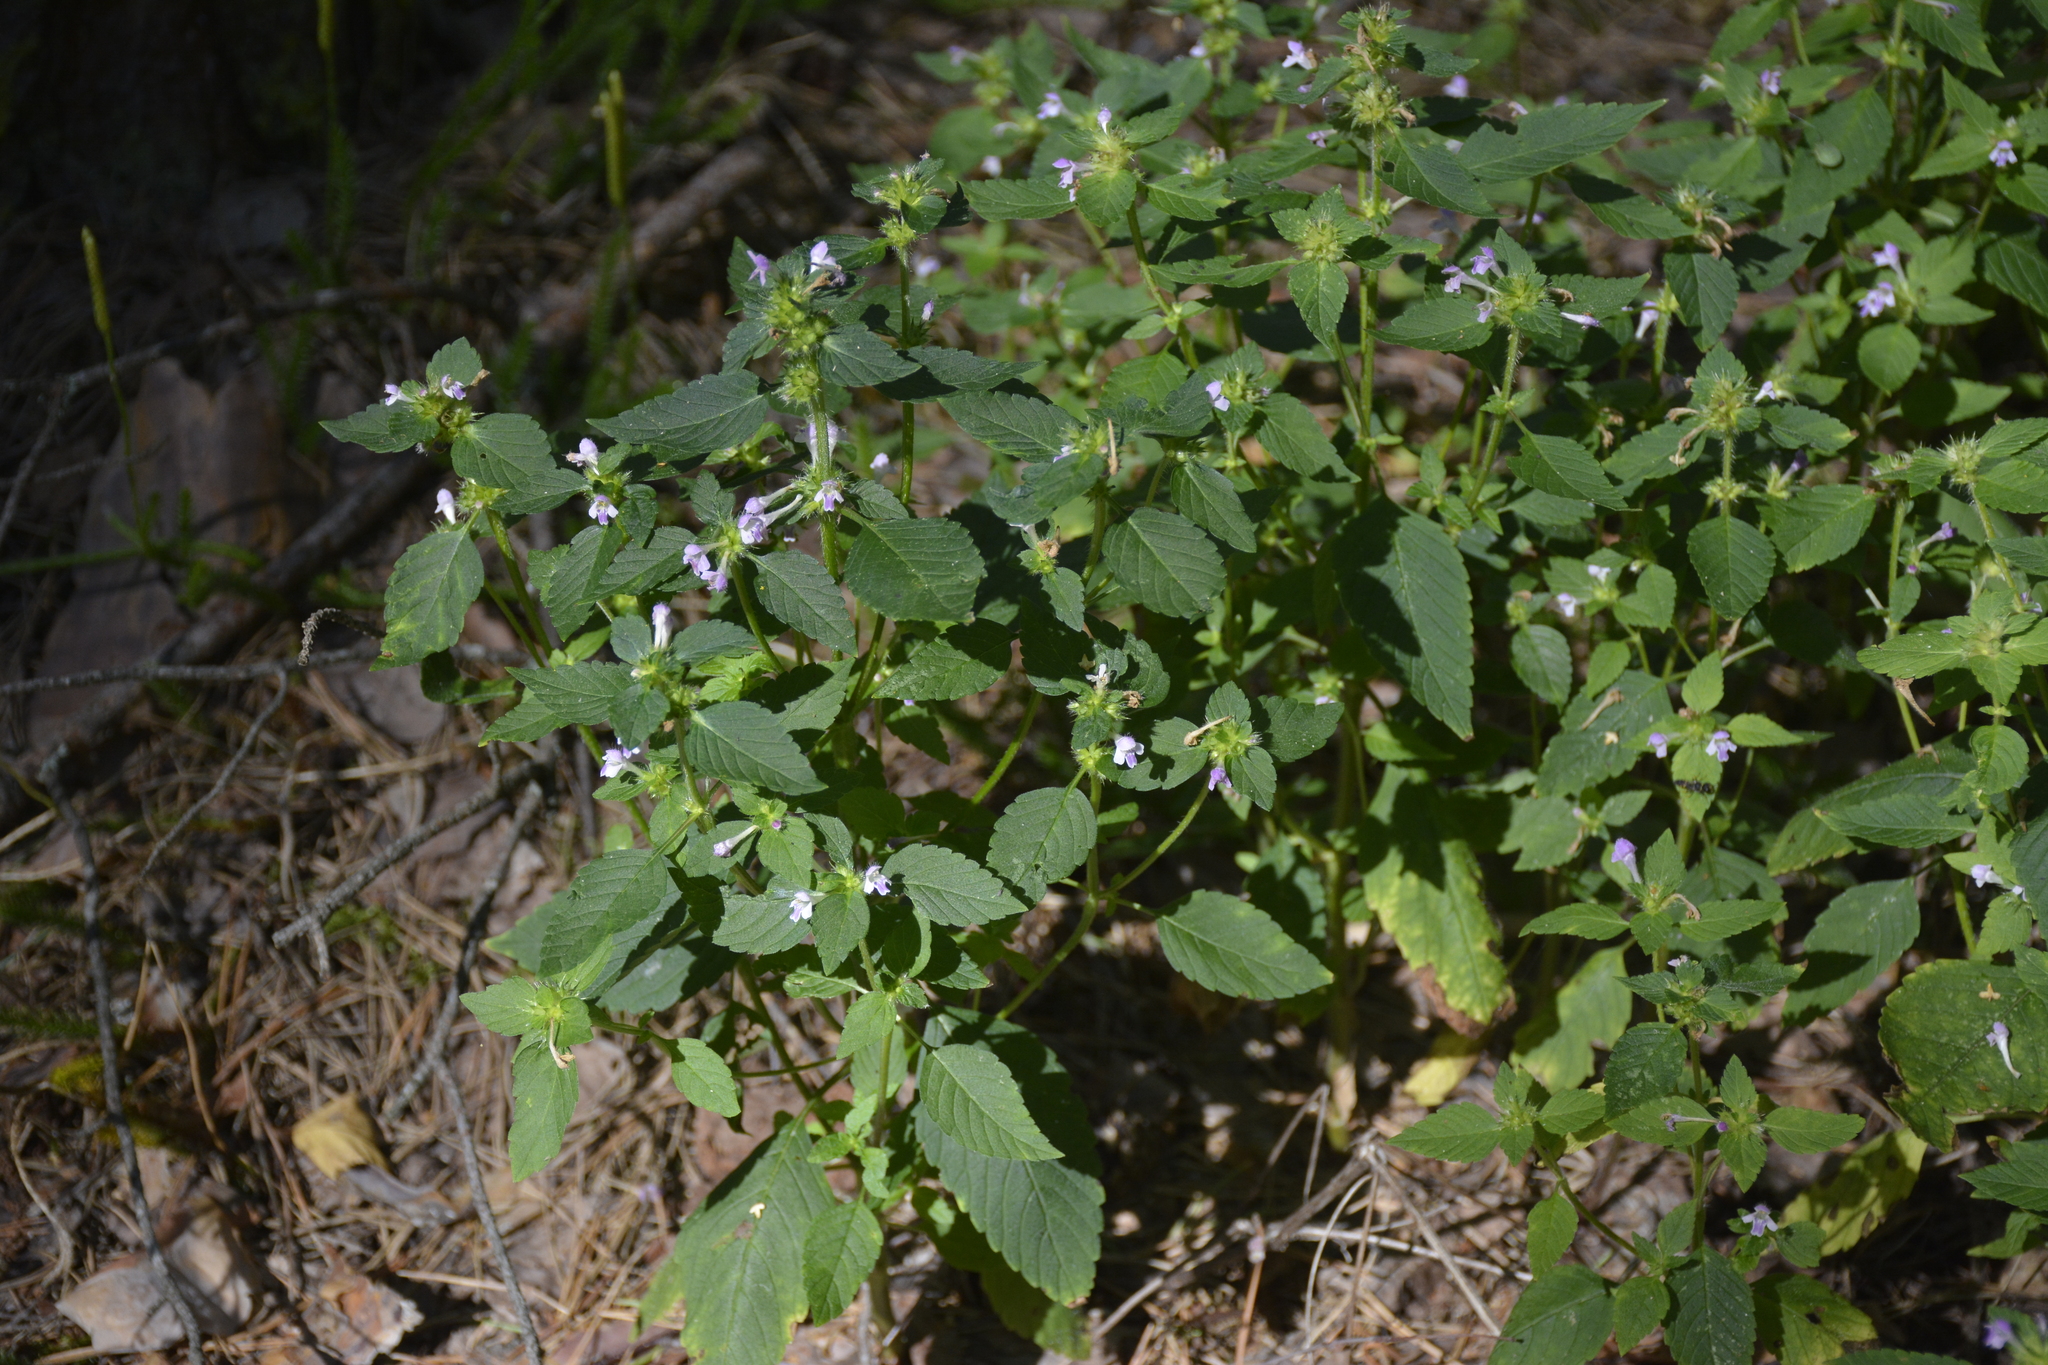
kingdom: Plantae
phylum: Tracheophyta
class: Magnoliopsida
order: Lamiales
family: Lamiaceae
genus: Galeopsis
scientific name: Galeopsis bifida
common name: Bifid hemp-nettle
